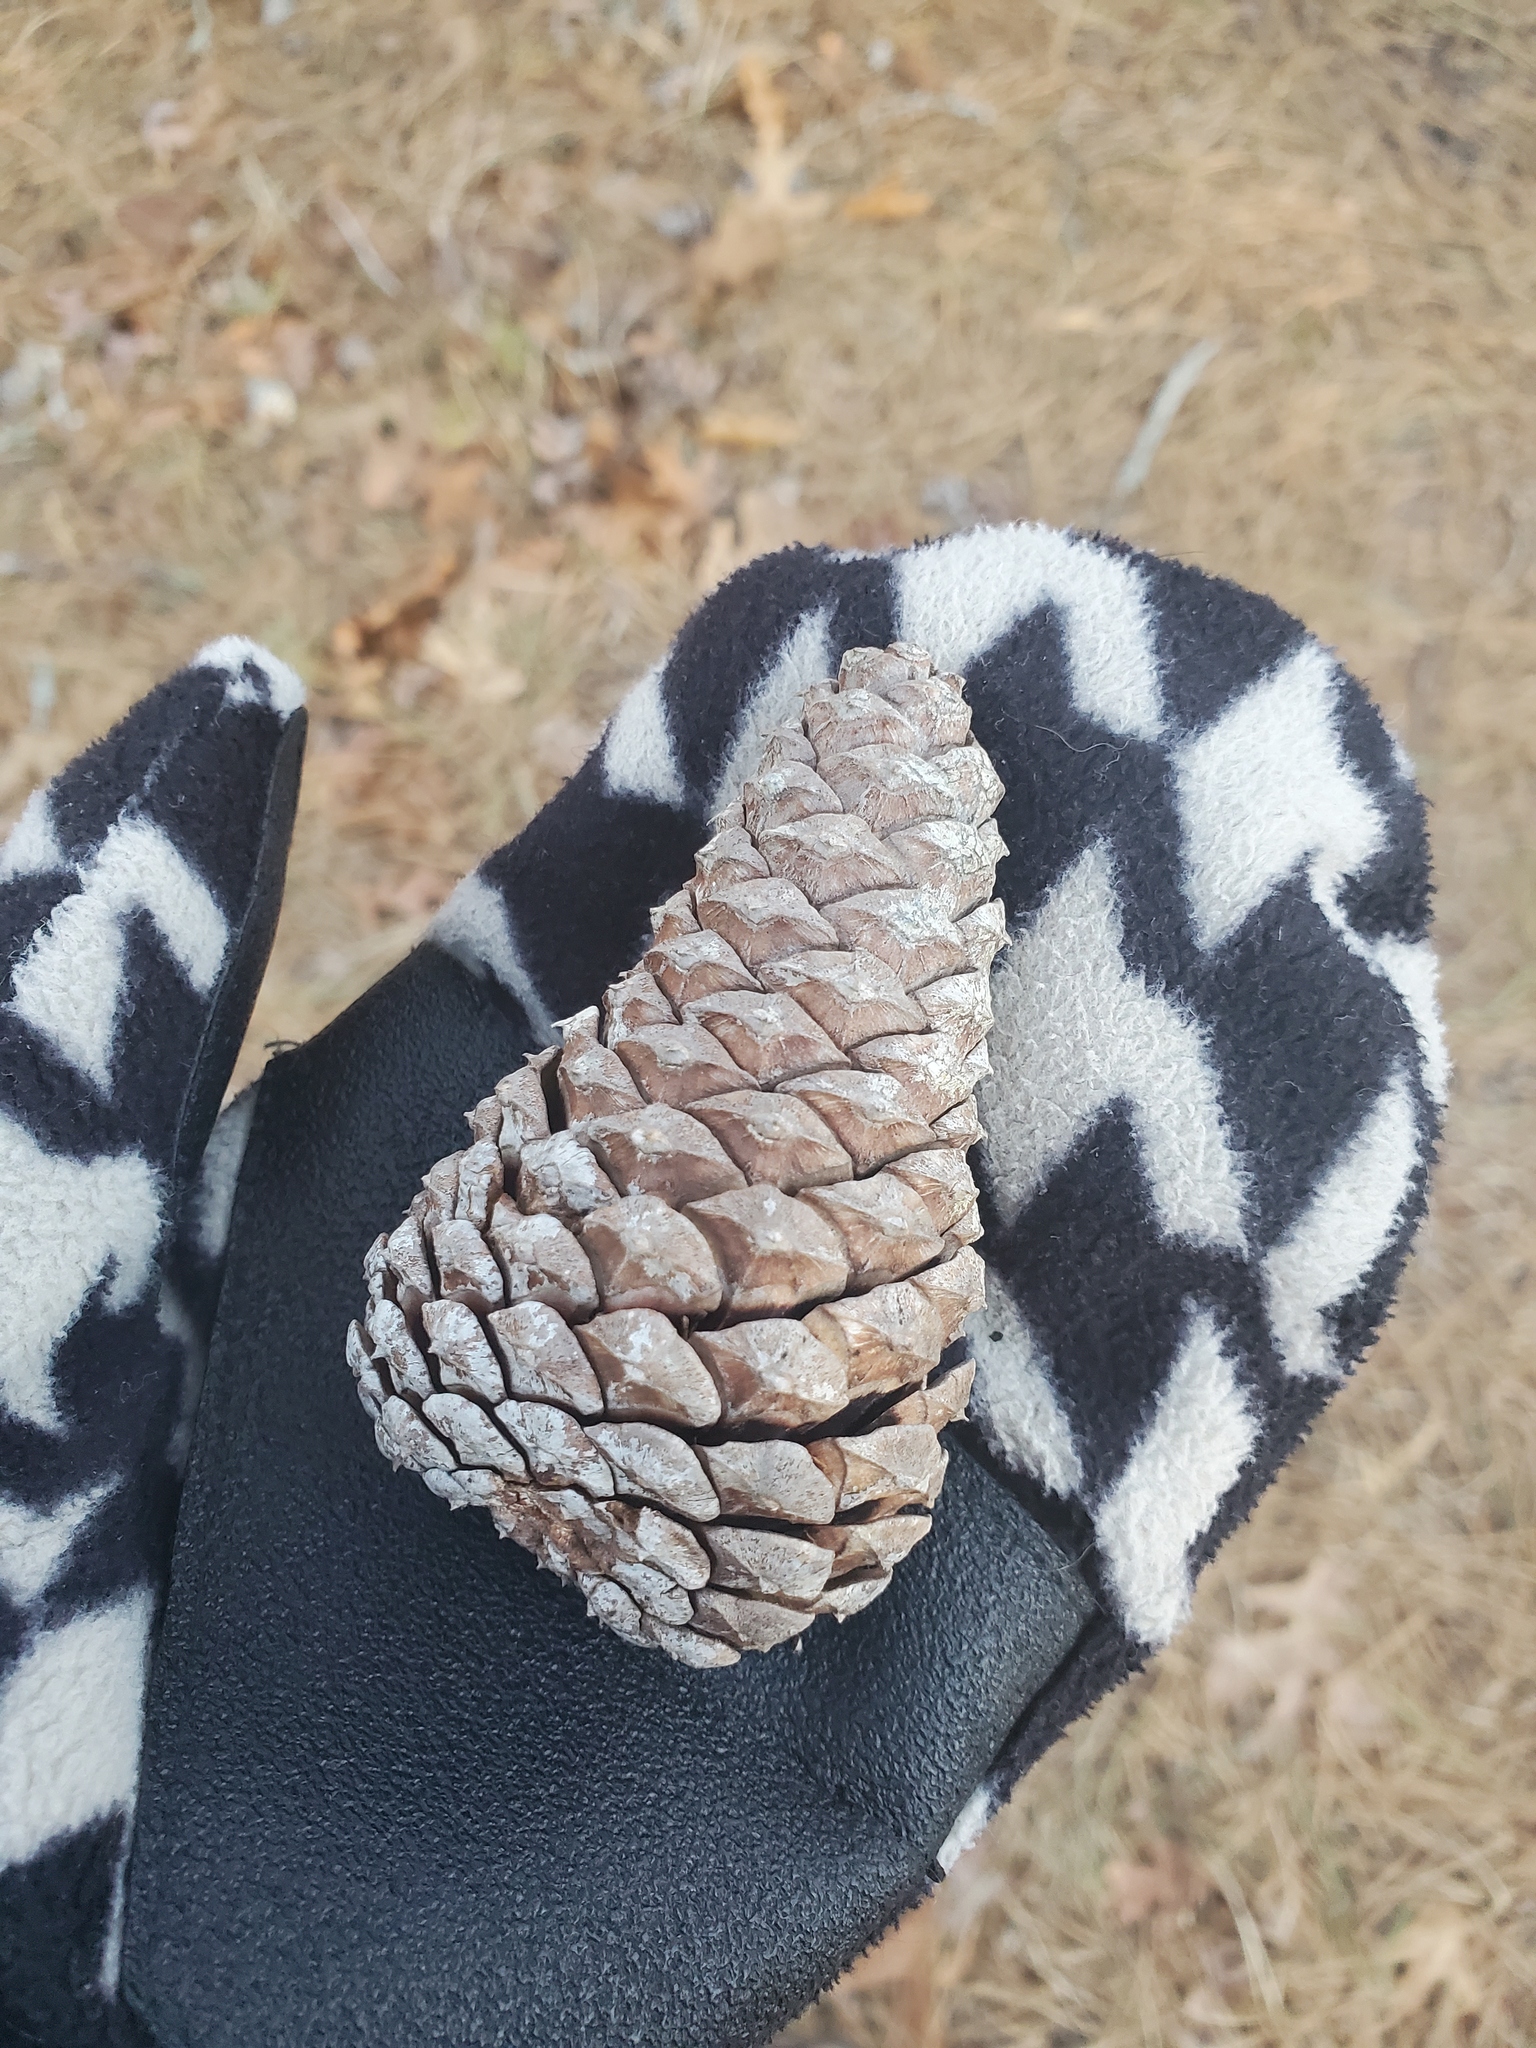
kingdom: Plantae
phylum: Tracheophyta
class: Pinopsida
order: Pinales
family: Pinaceae
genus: Pinus
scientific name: Pinus rigida
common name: Pitch pine
